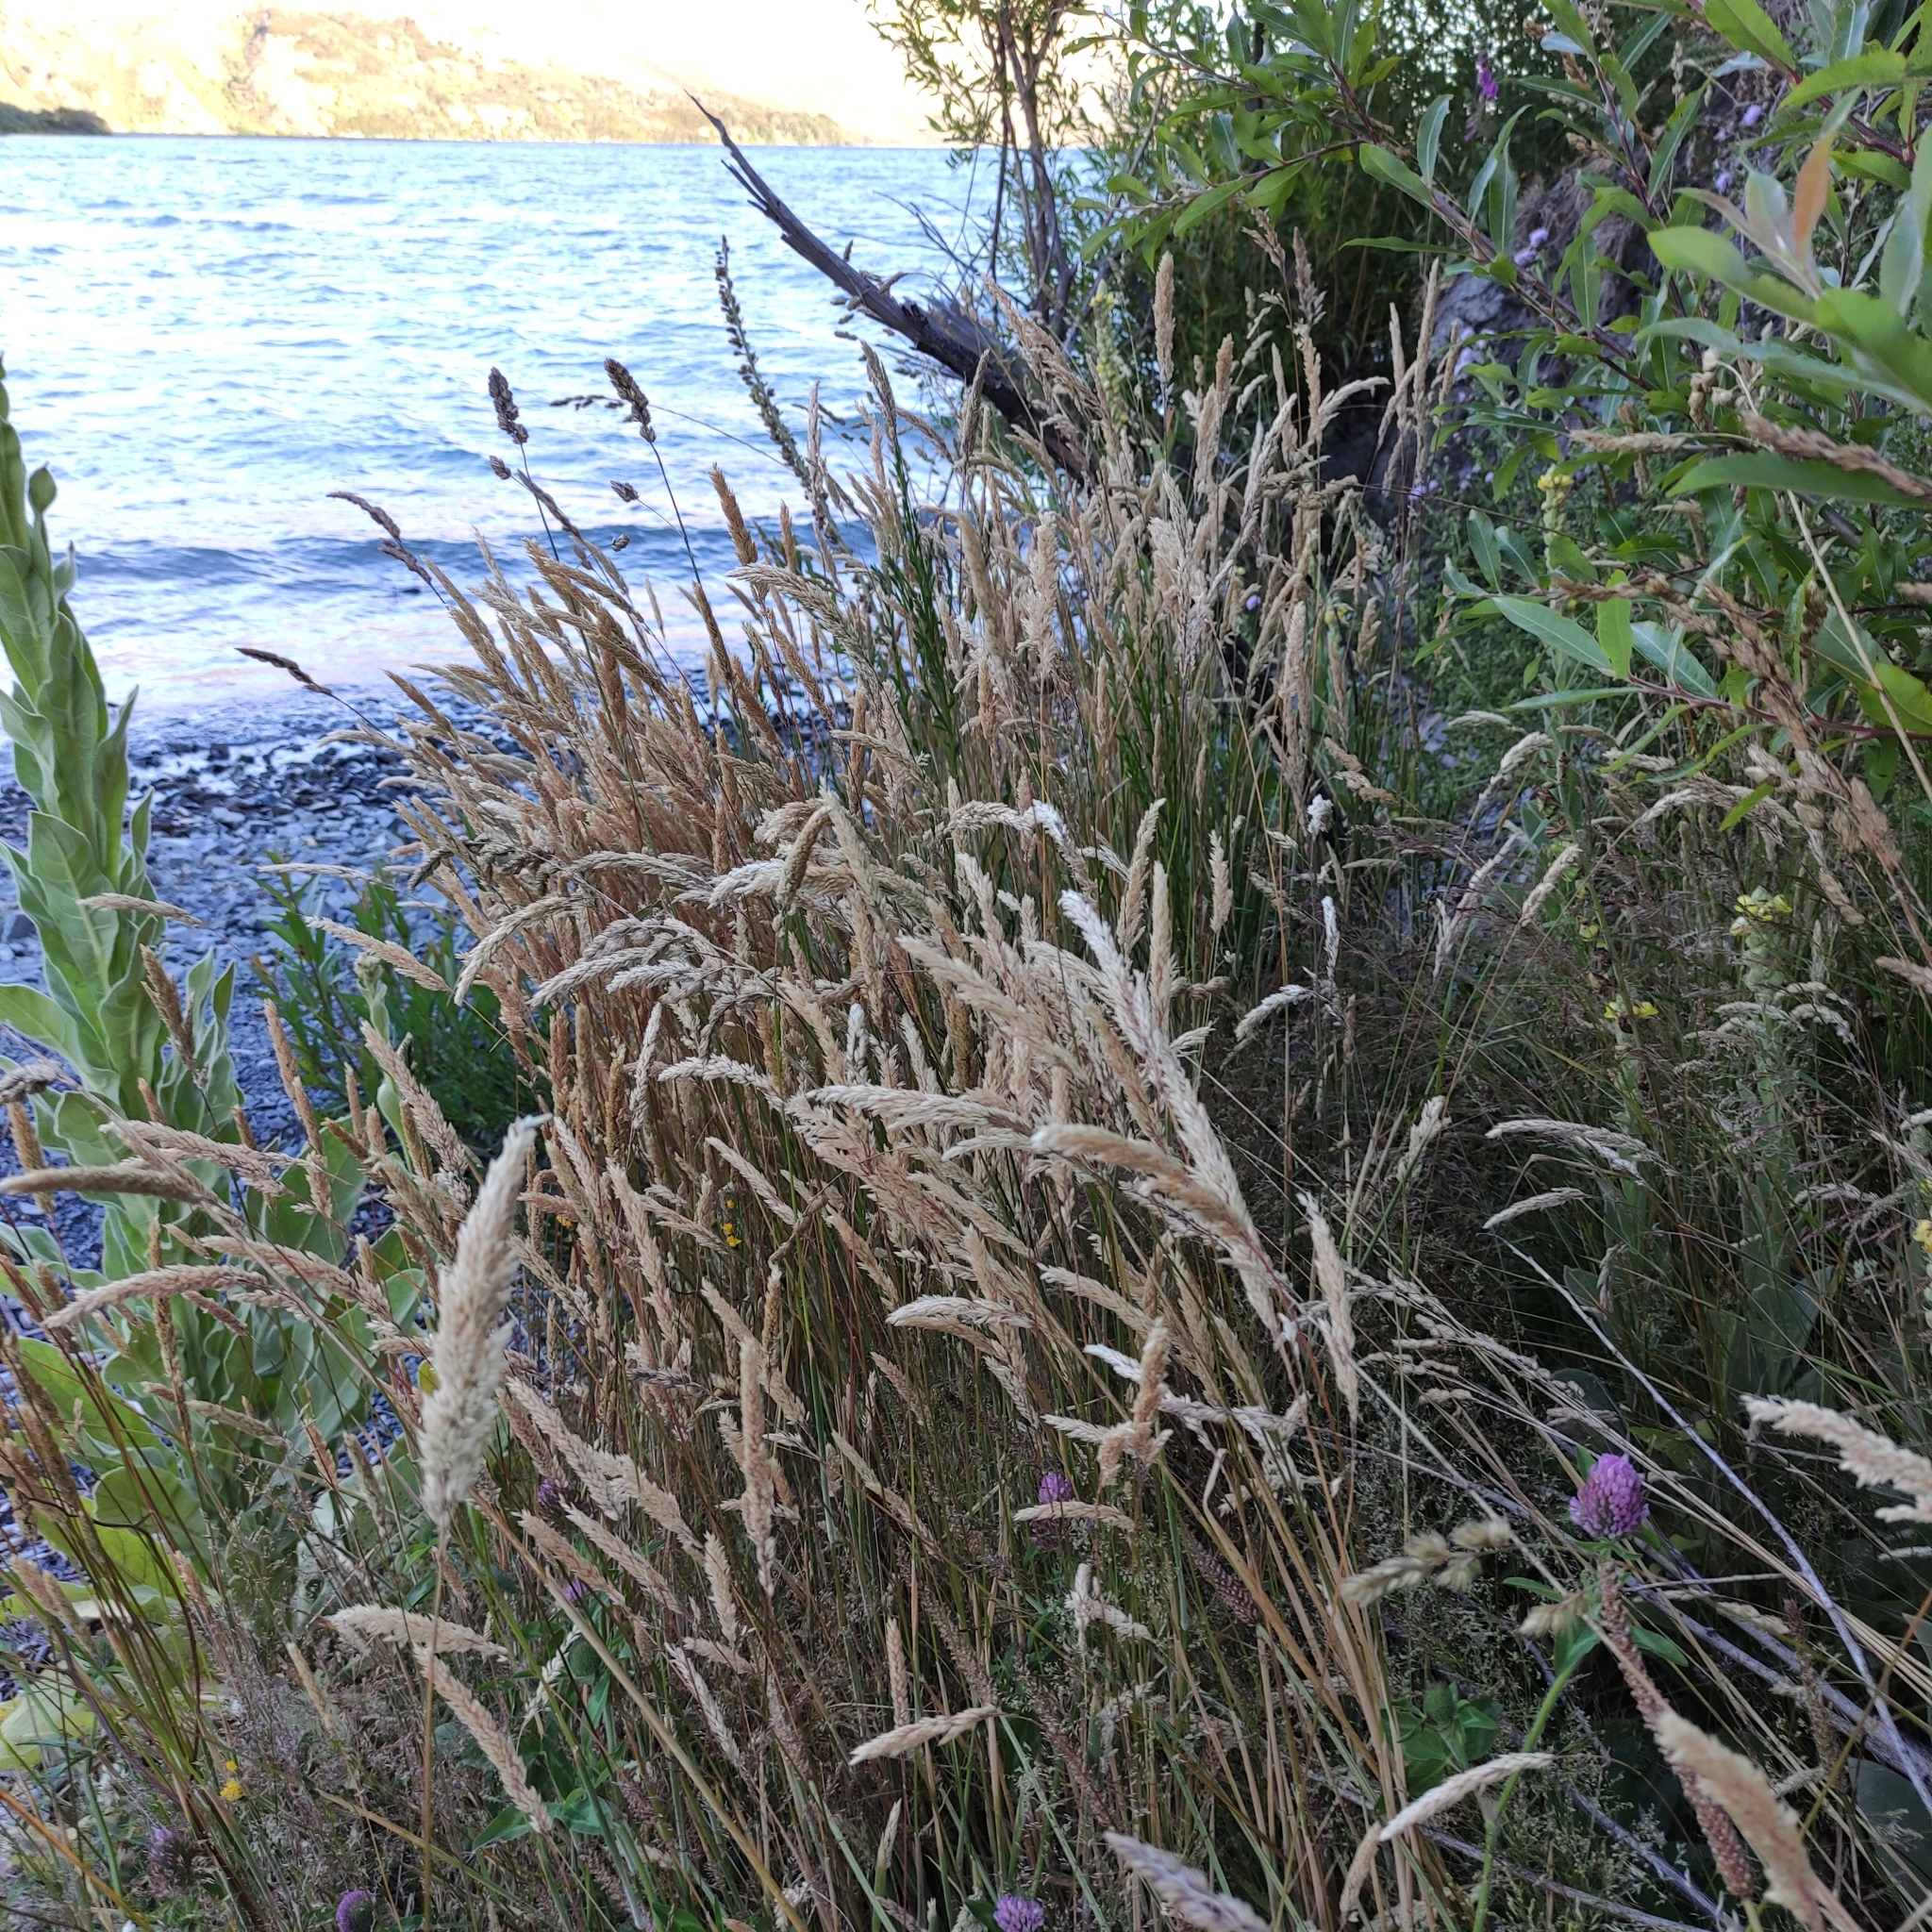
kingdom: Plantae
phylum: Tracheophyta
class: Liliopsida
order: Poales
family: Poaceae
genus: Holcus
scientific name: Holcus lanatus
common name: Yorkshire-fog
